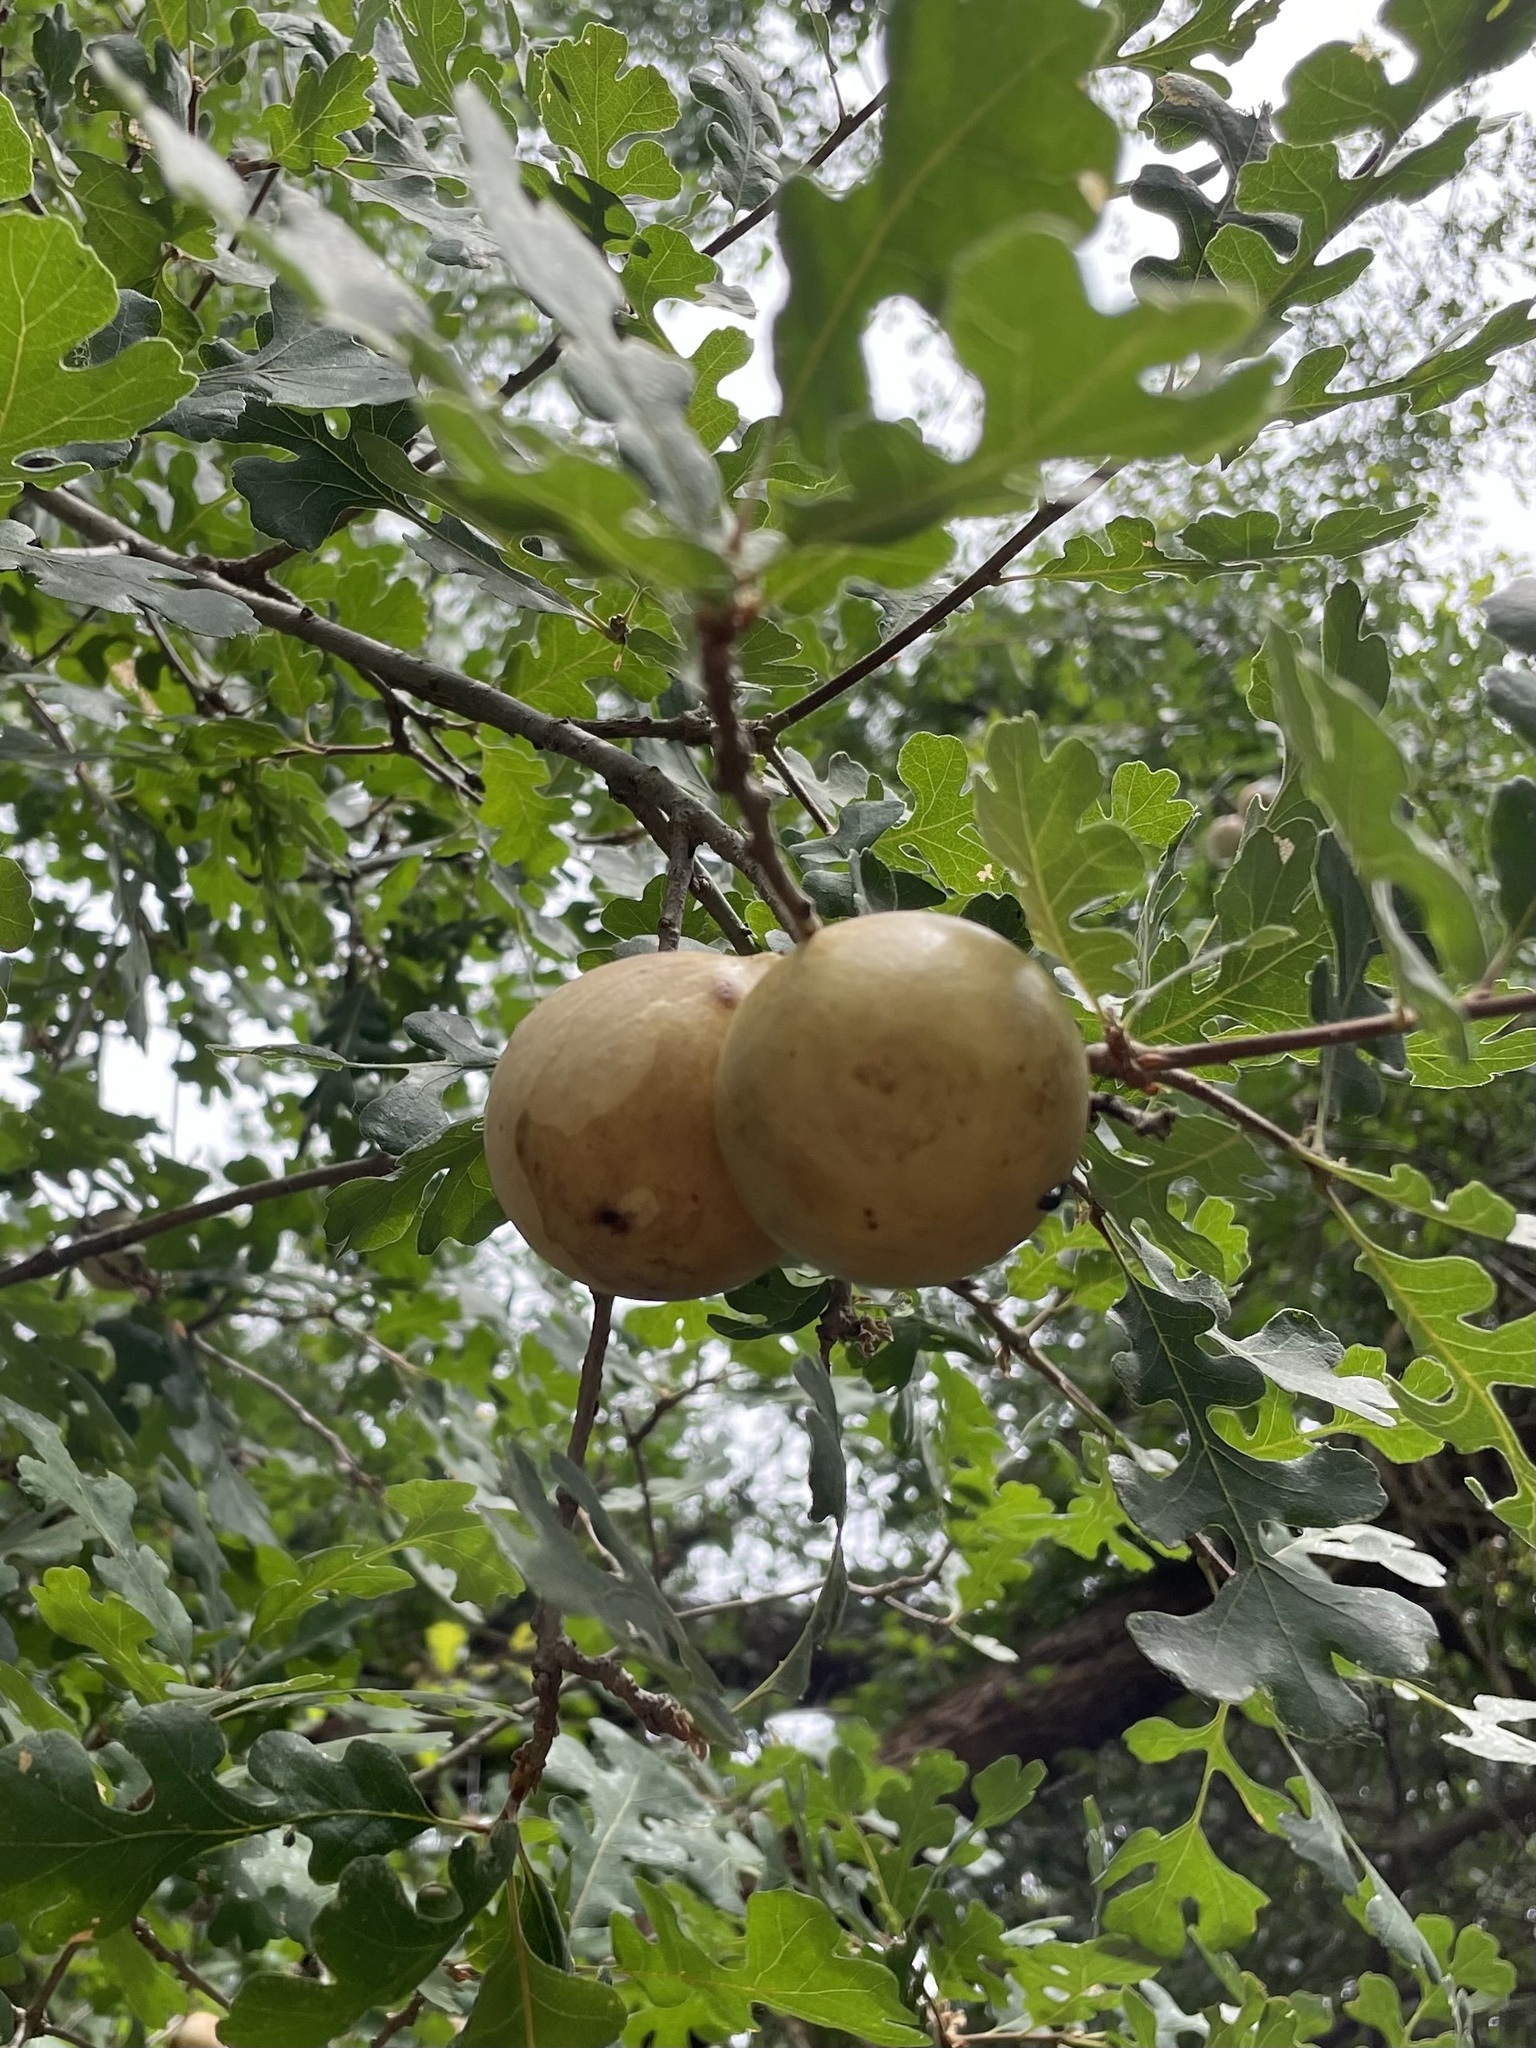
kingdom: Animalia
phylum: Arthropoda
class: Insecta
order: Hymenoptera
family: Cynipidae
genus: Andricus
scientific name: Andricus quercuscalifornicus
